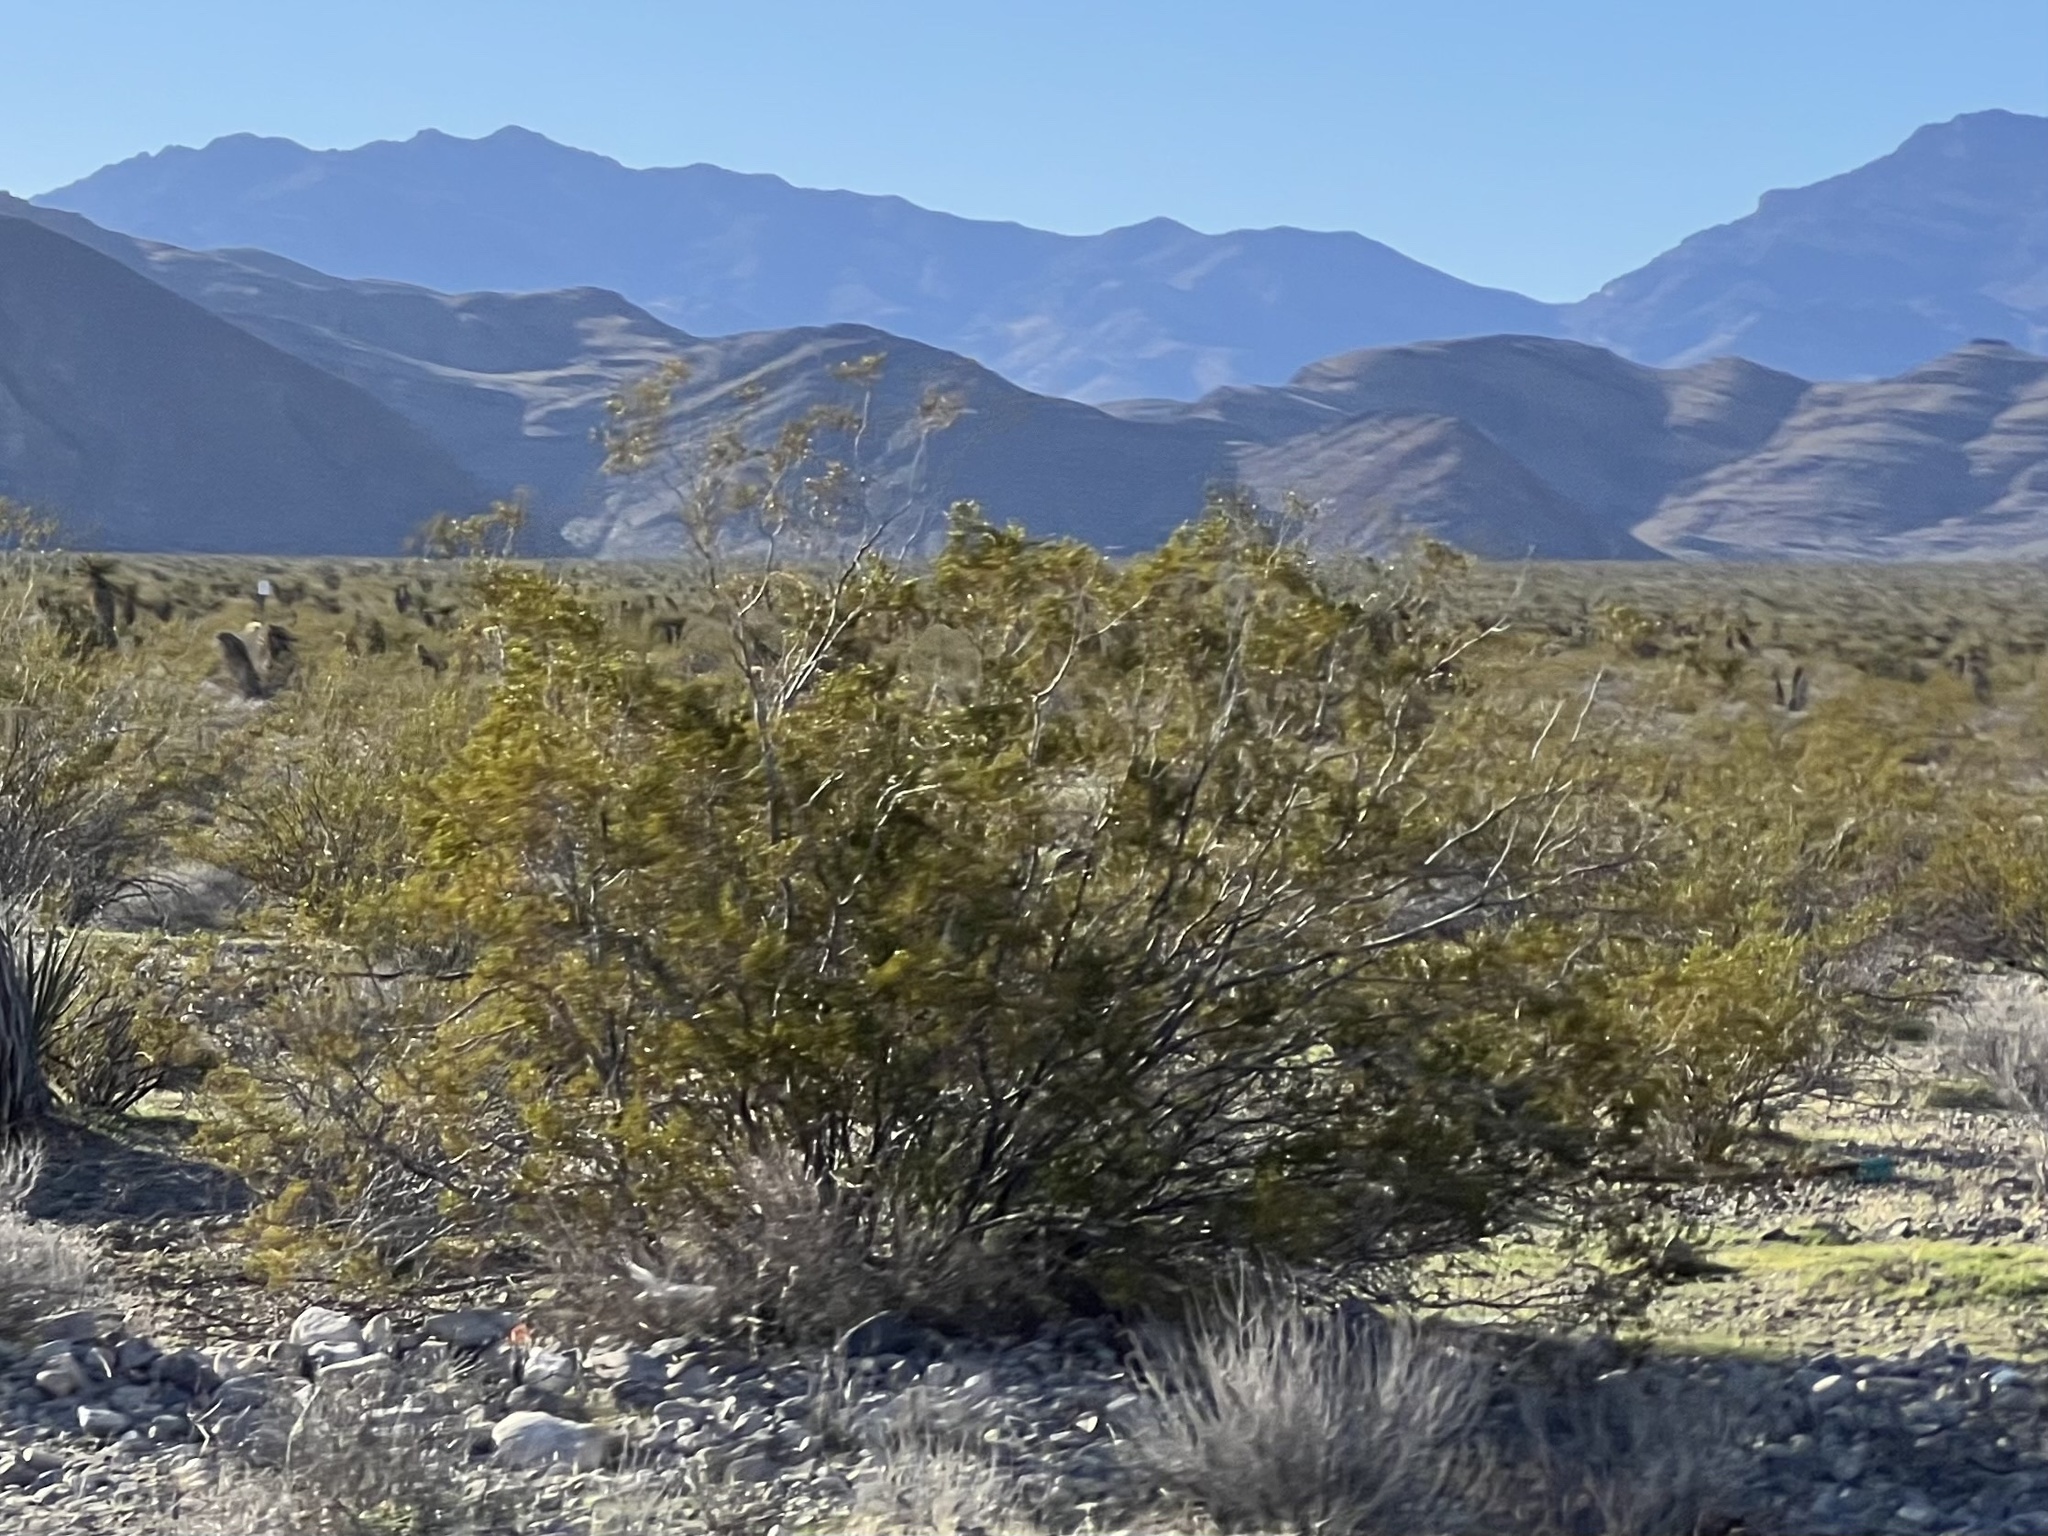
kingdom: Plantae
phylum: Tracheophyta
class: Magnoliopsida
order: Zygophyllales
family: Zygophyllaceae
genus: Larrea
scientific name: Larrea tridentata
